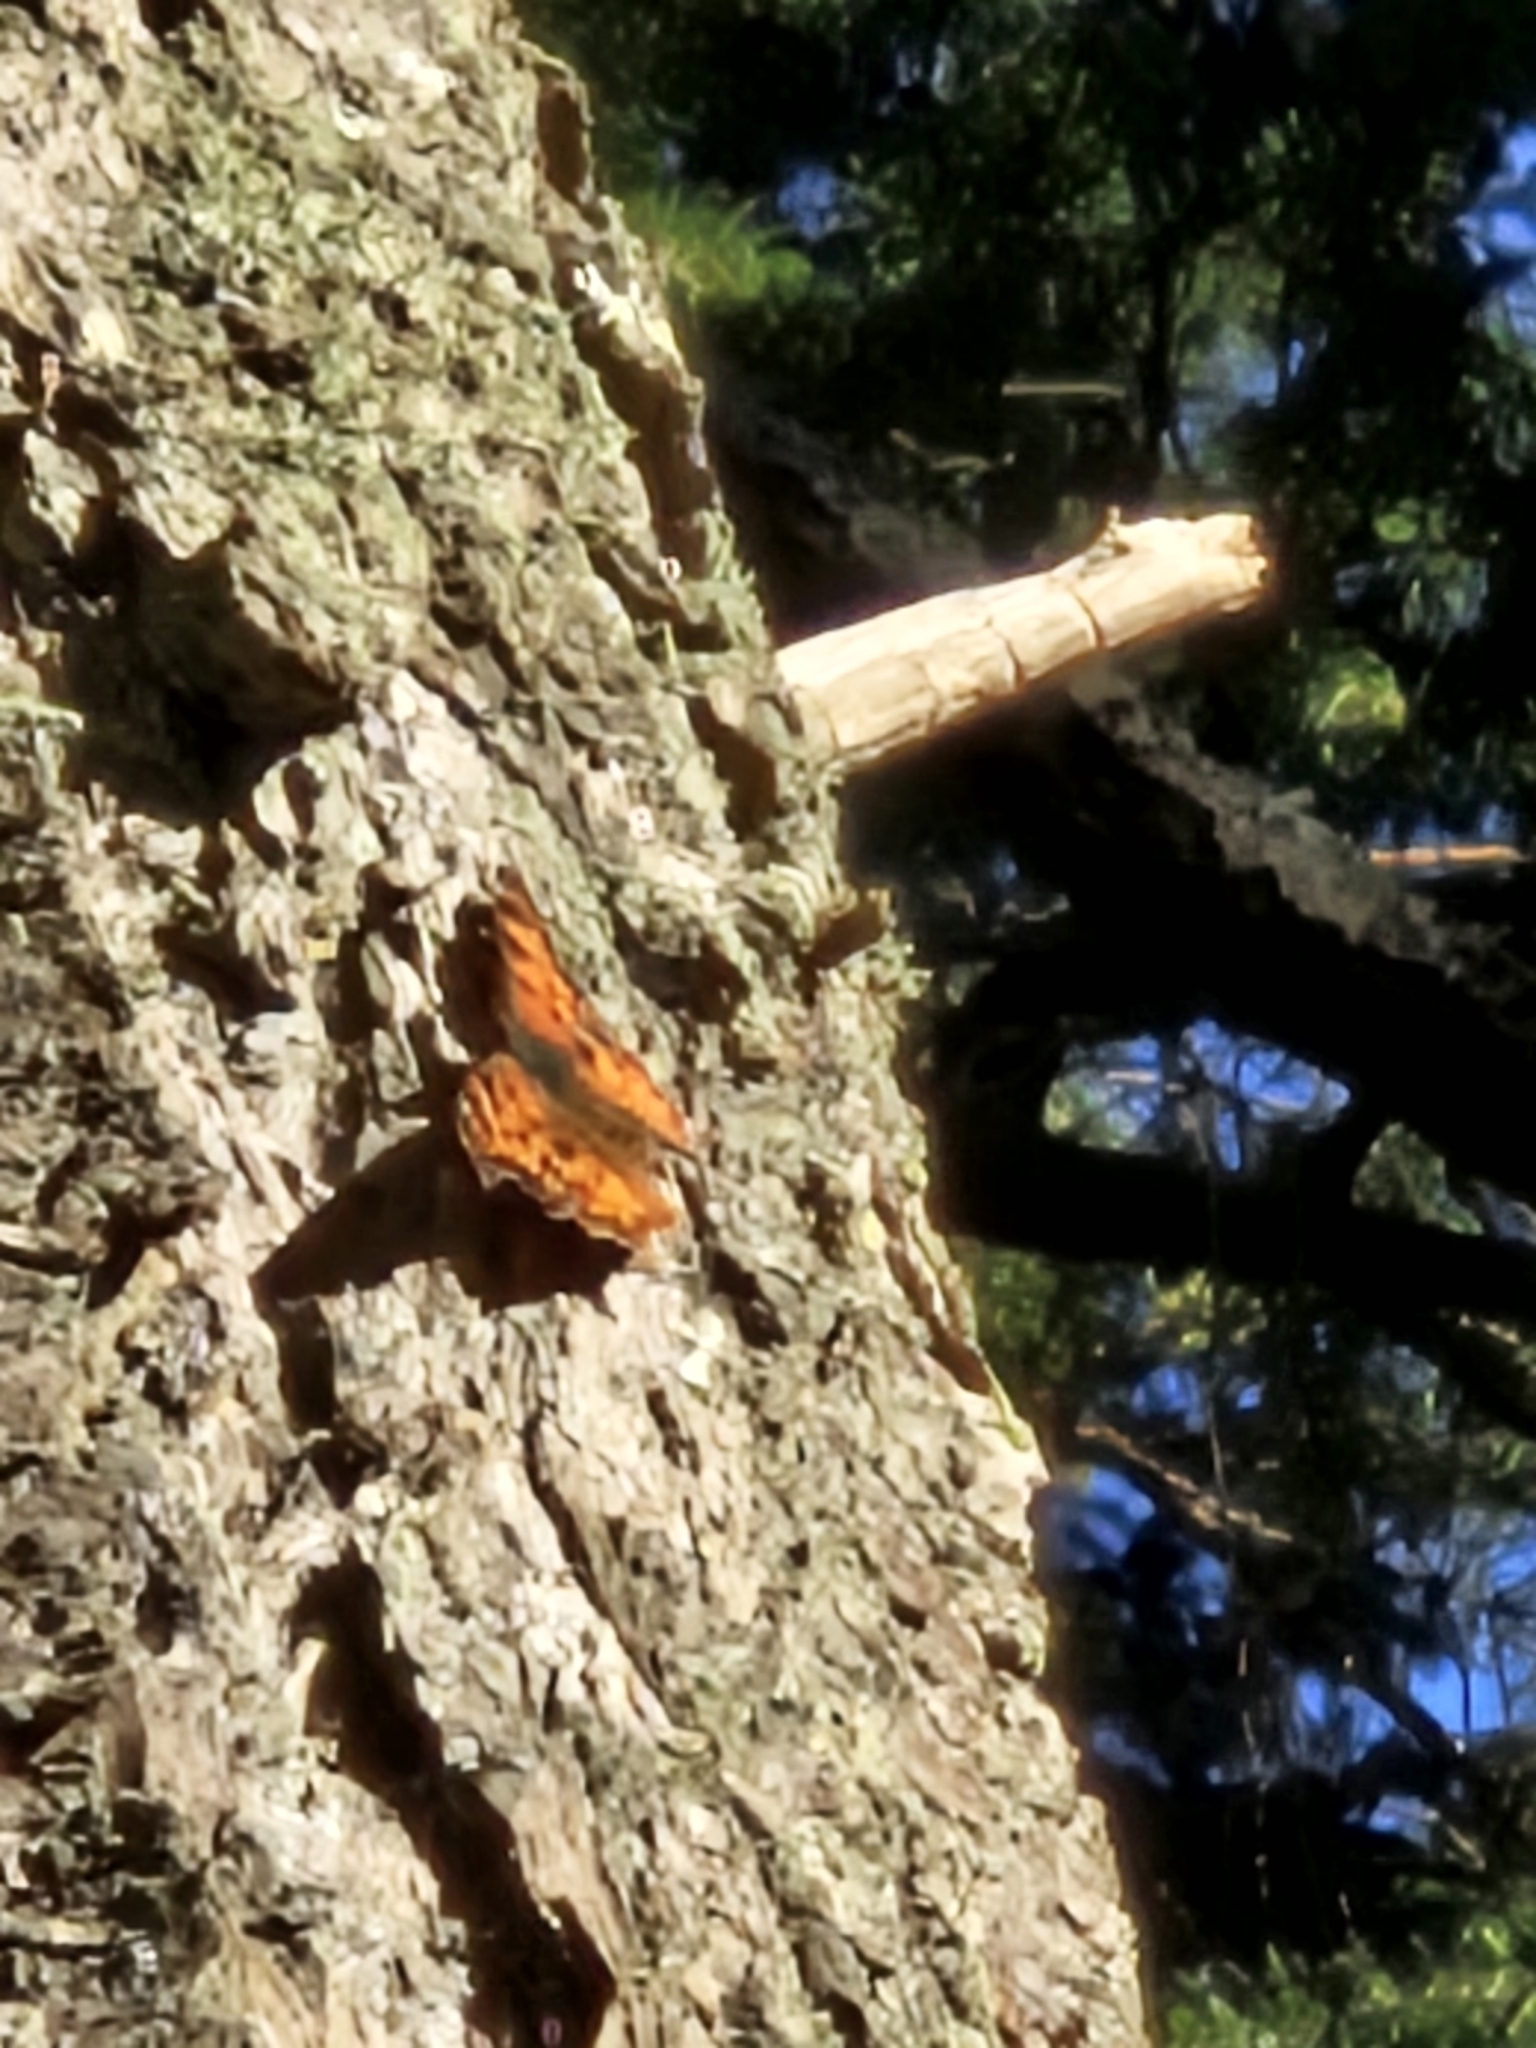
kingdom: Animalia
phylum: Arthropoda
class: Insecta
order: Lepidoptera
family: Nymphalidae
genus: Polygonia
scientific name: Polygonia satyrus
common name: Satyr angle wing
